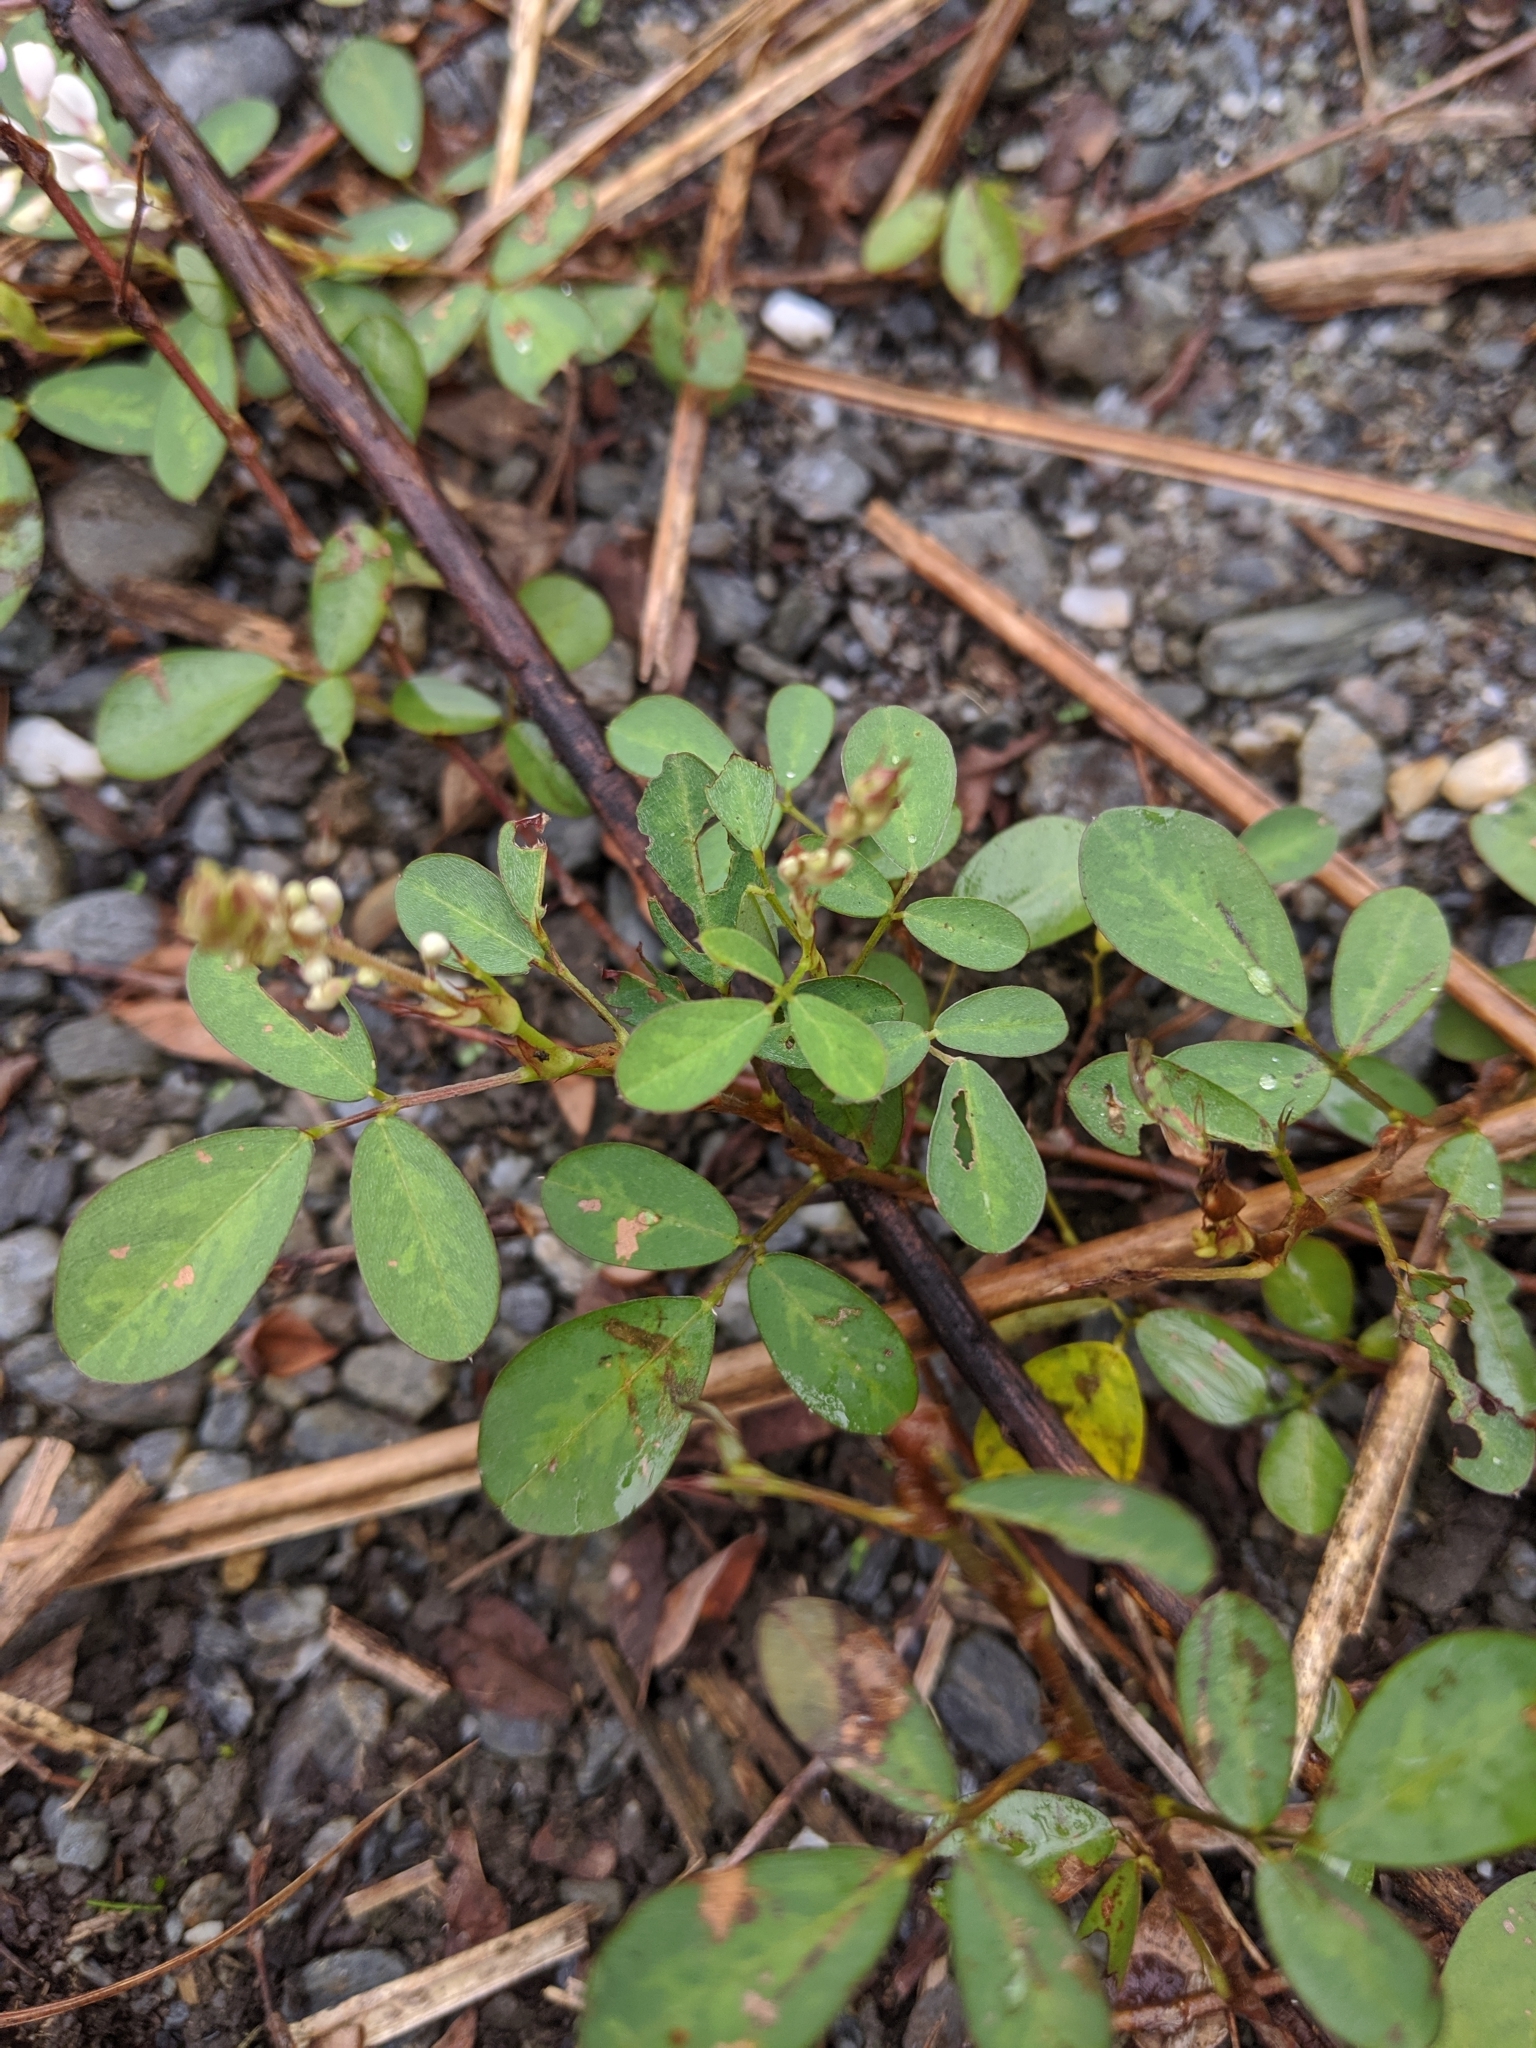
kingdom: Plantae
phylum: Tracheophyta
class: Magnoliopsida
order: Fabales
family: Fabaceae
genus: Grona
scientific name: Grona heterocarpos
